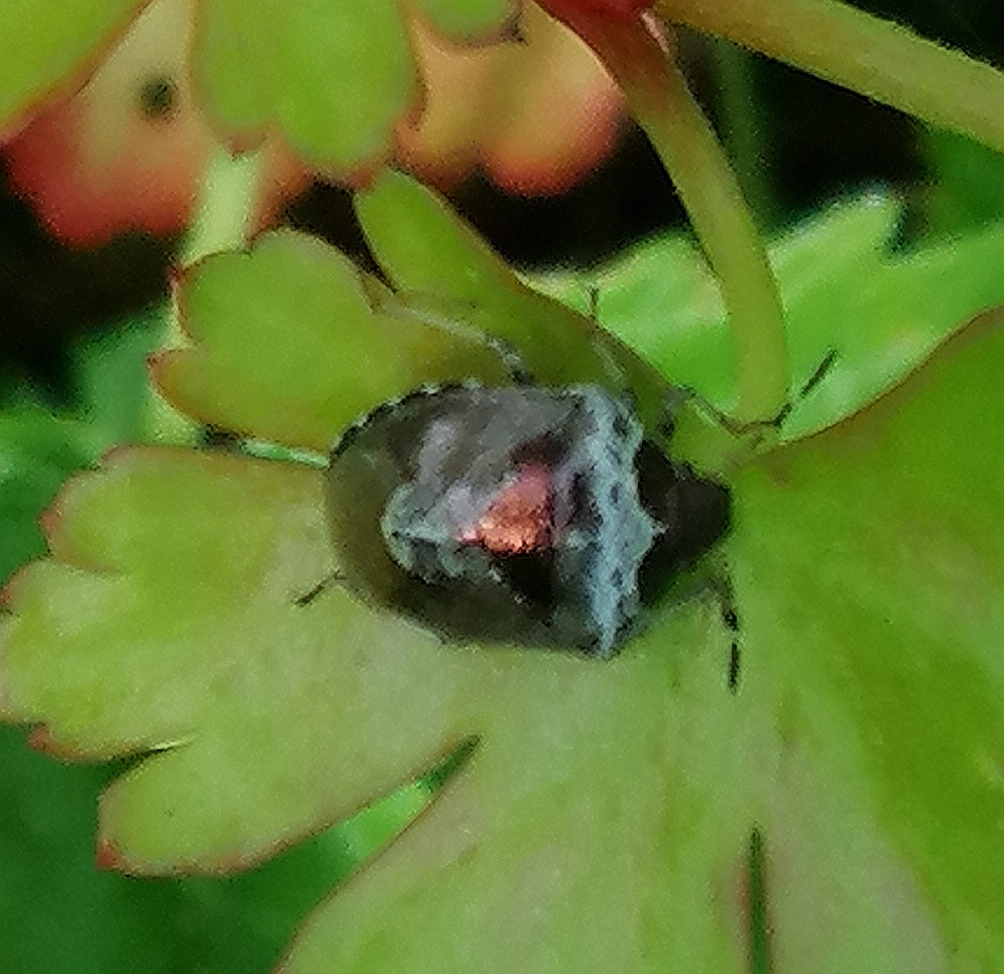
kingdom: Animalia
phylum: Arthropoda
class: Insecta
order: Hemiptera
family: Pentatomidae
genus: Eysarcoris
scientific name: Eysarcoris venustissimus
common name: Woundwort shieldbug
